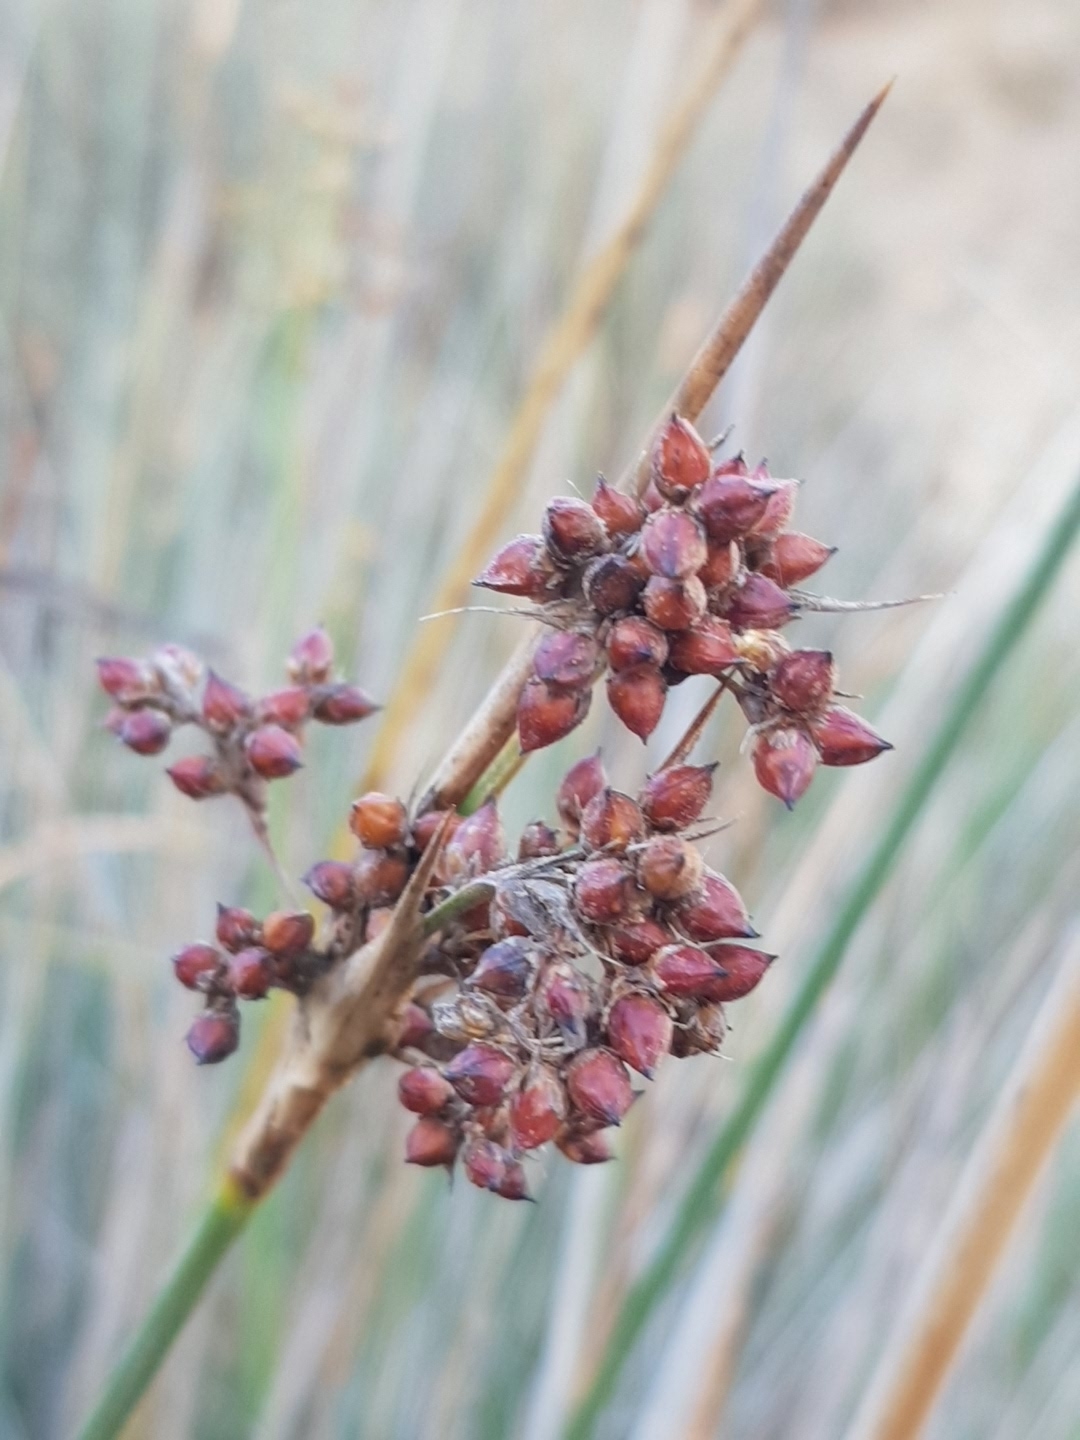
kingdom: Plantae
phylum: Tracheophyta
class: Liliopsida
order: Poales
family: Juncaceae
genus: Juncus
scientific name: Juncus acutus
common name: Sharp rush
